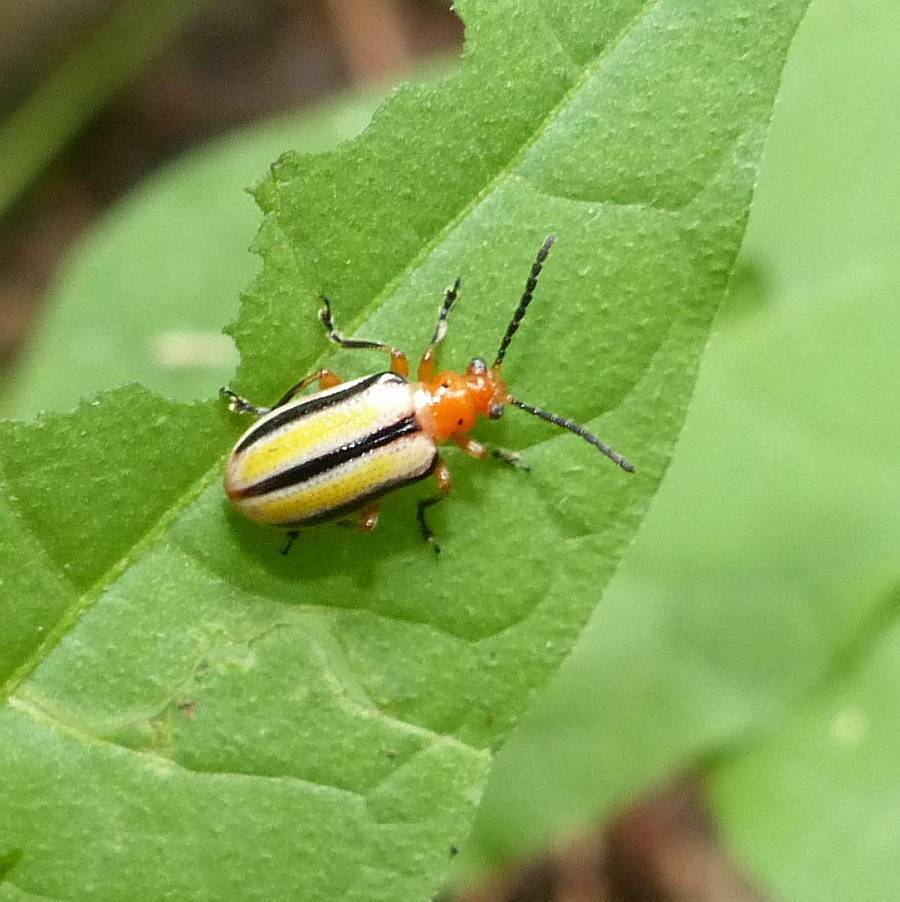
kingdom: Animalia
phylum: Arthropoda
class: Insecta
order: Coleoptera
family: Chrysomelidae
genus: Lema
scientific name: Lema daturaphila
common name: Leaf beetle
